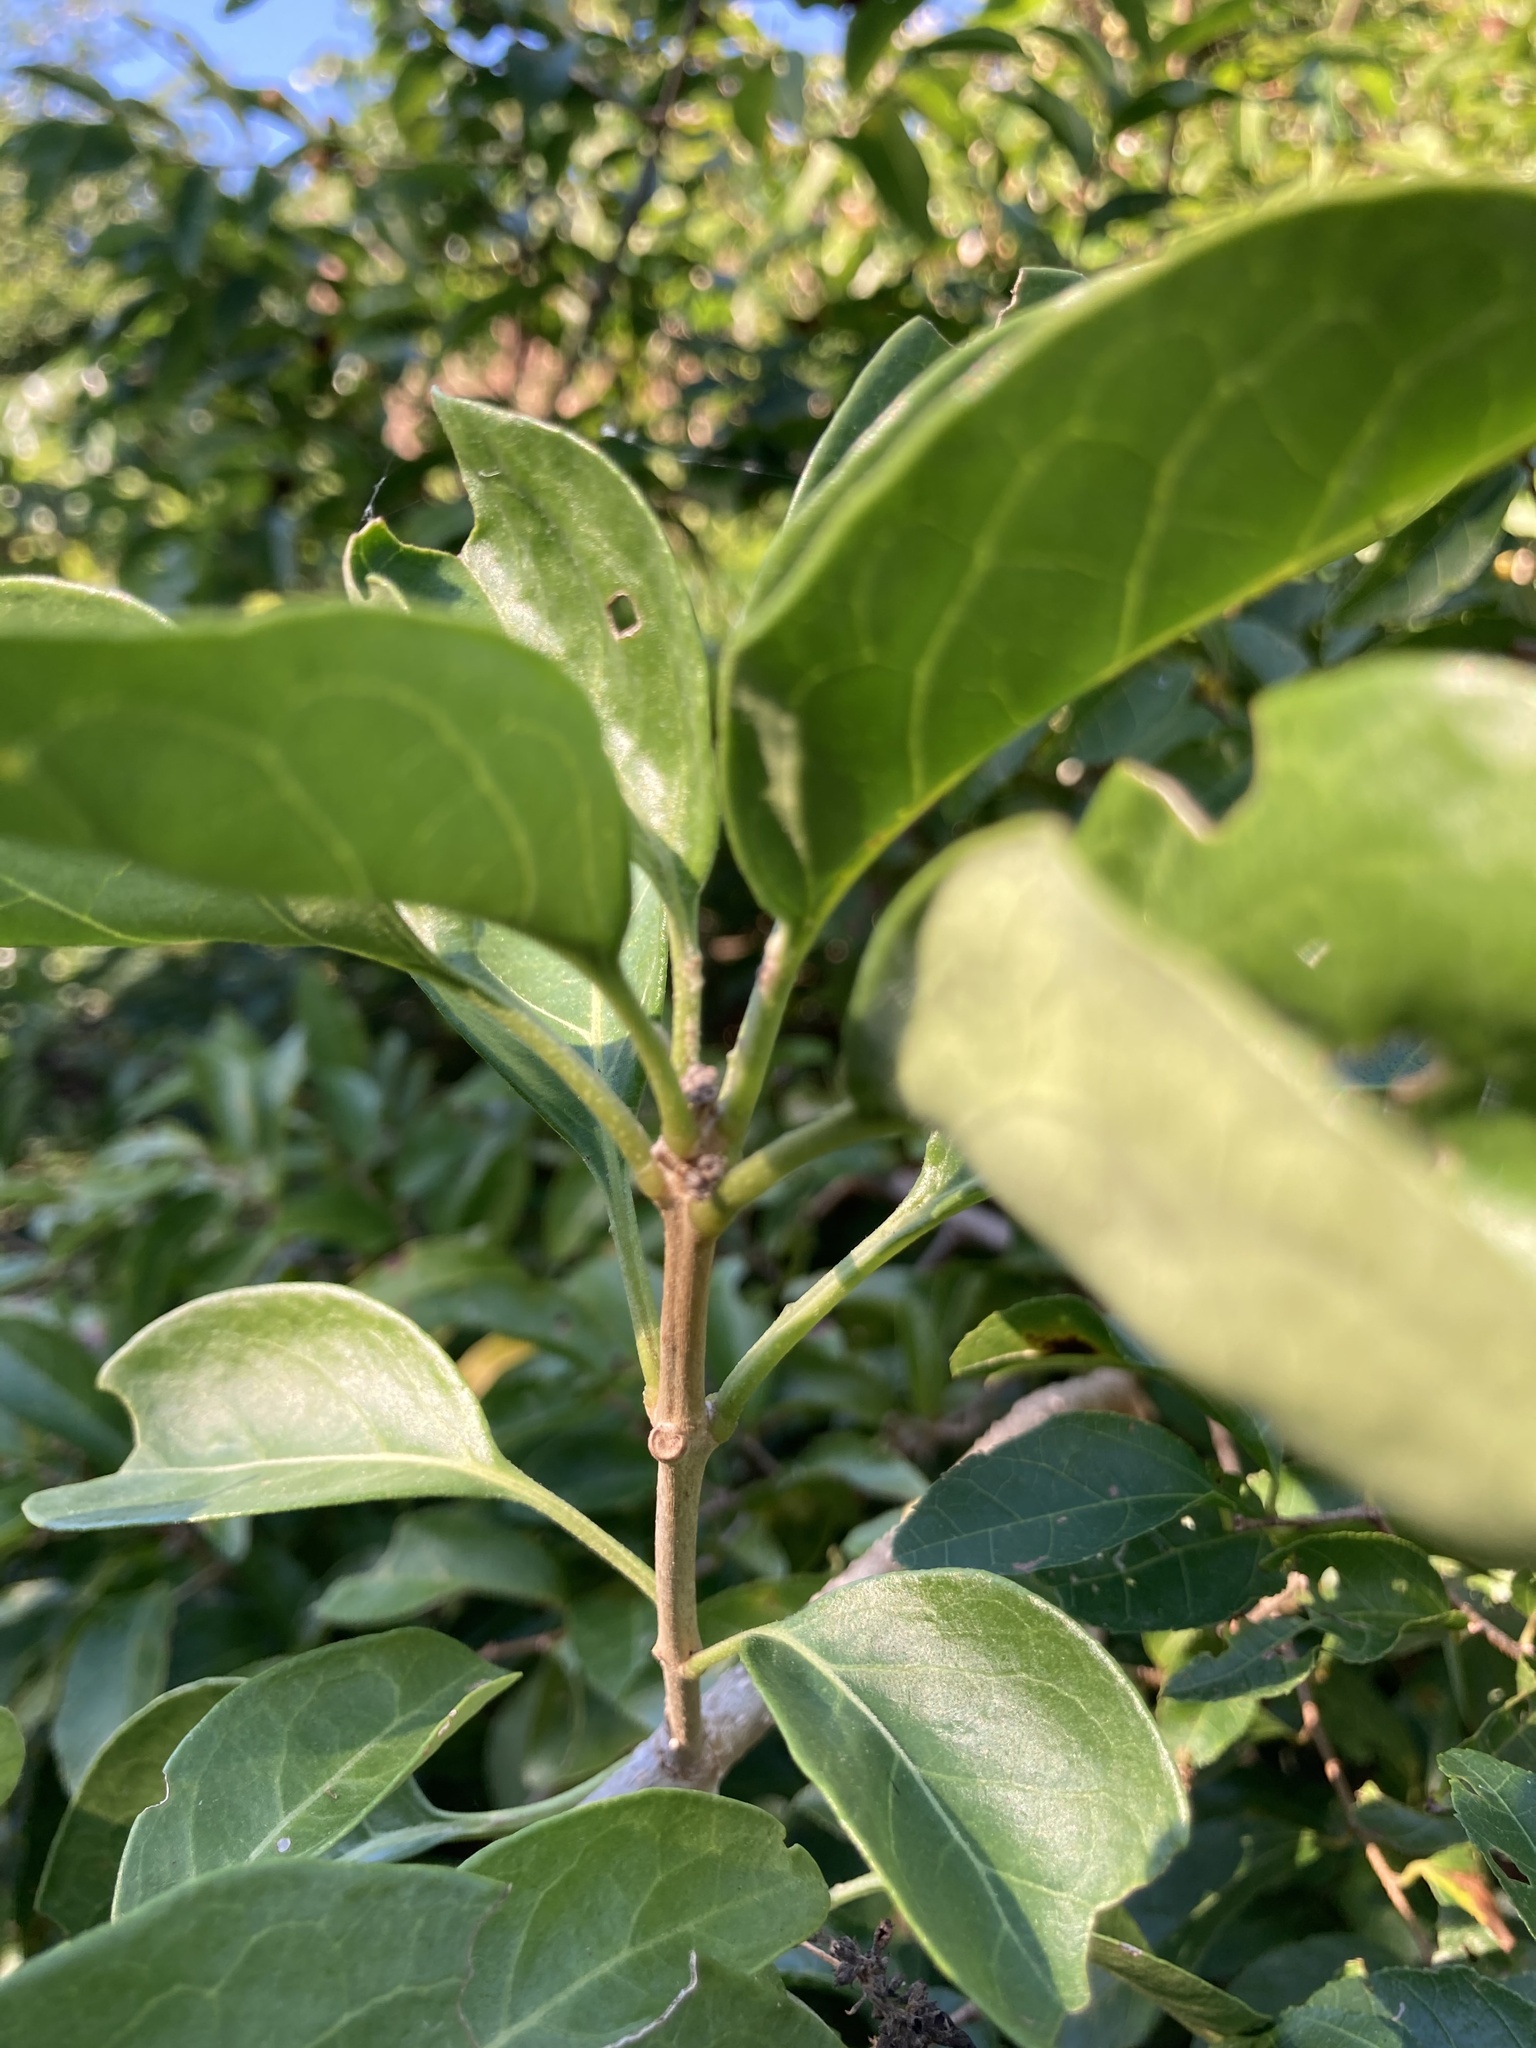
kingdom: Plantae
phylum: Tracheophyta
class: Magnoliopsida
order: Lamiales
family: Lamiaceae
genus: Volkameria
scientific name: Volkameria glabra
